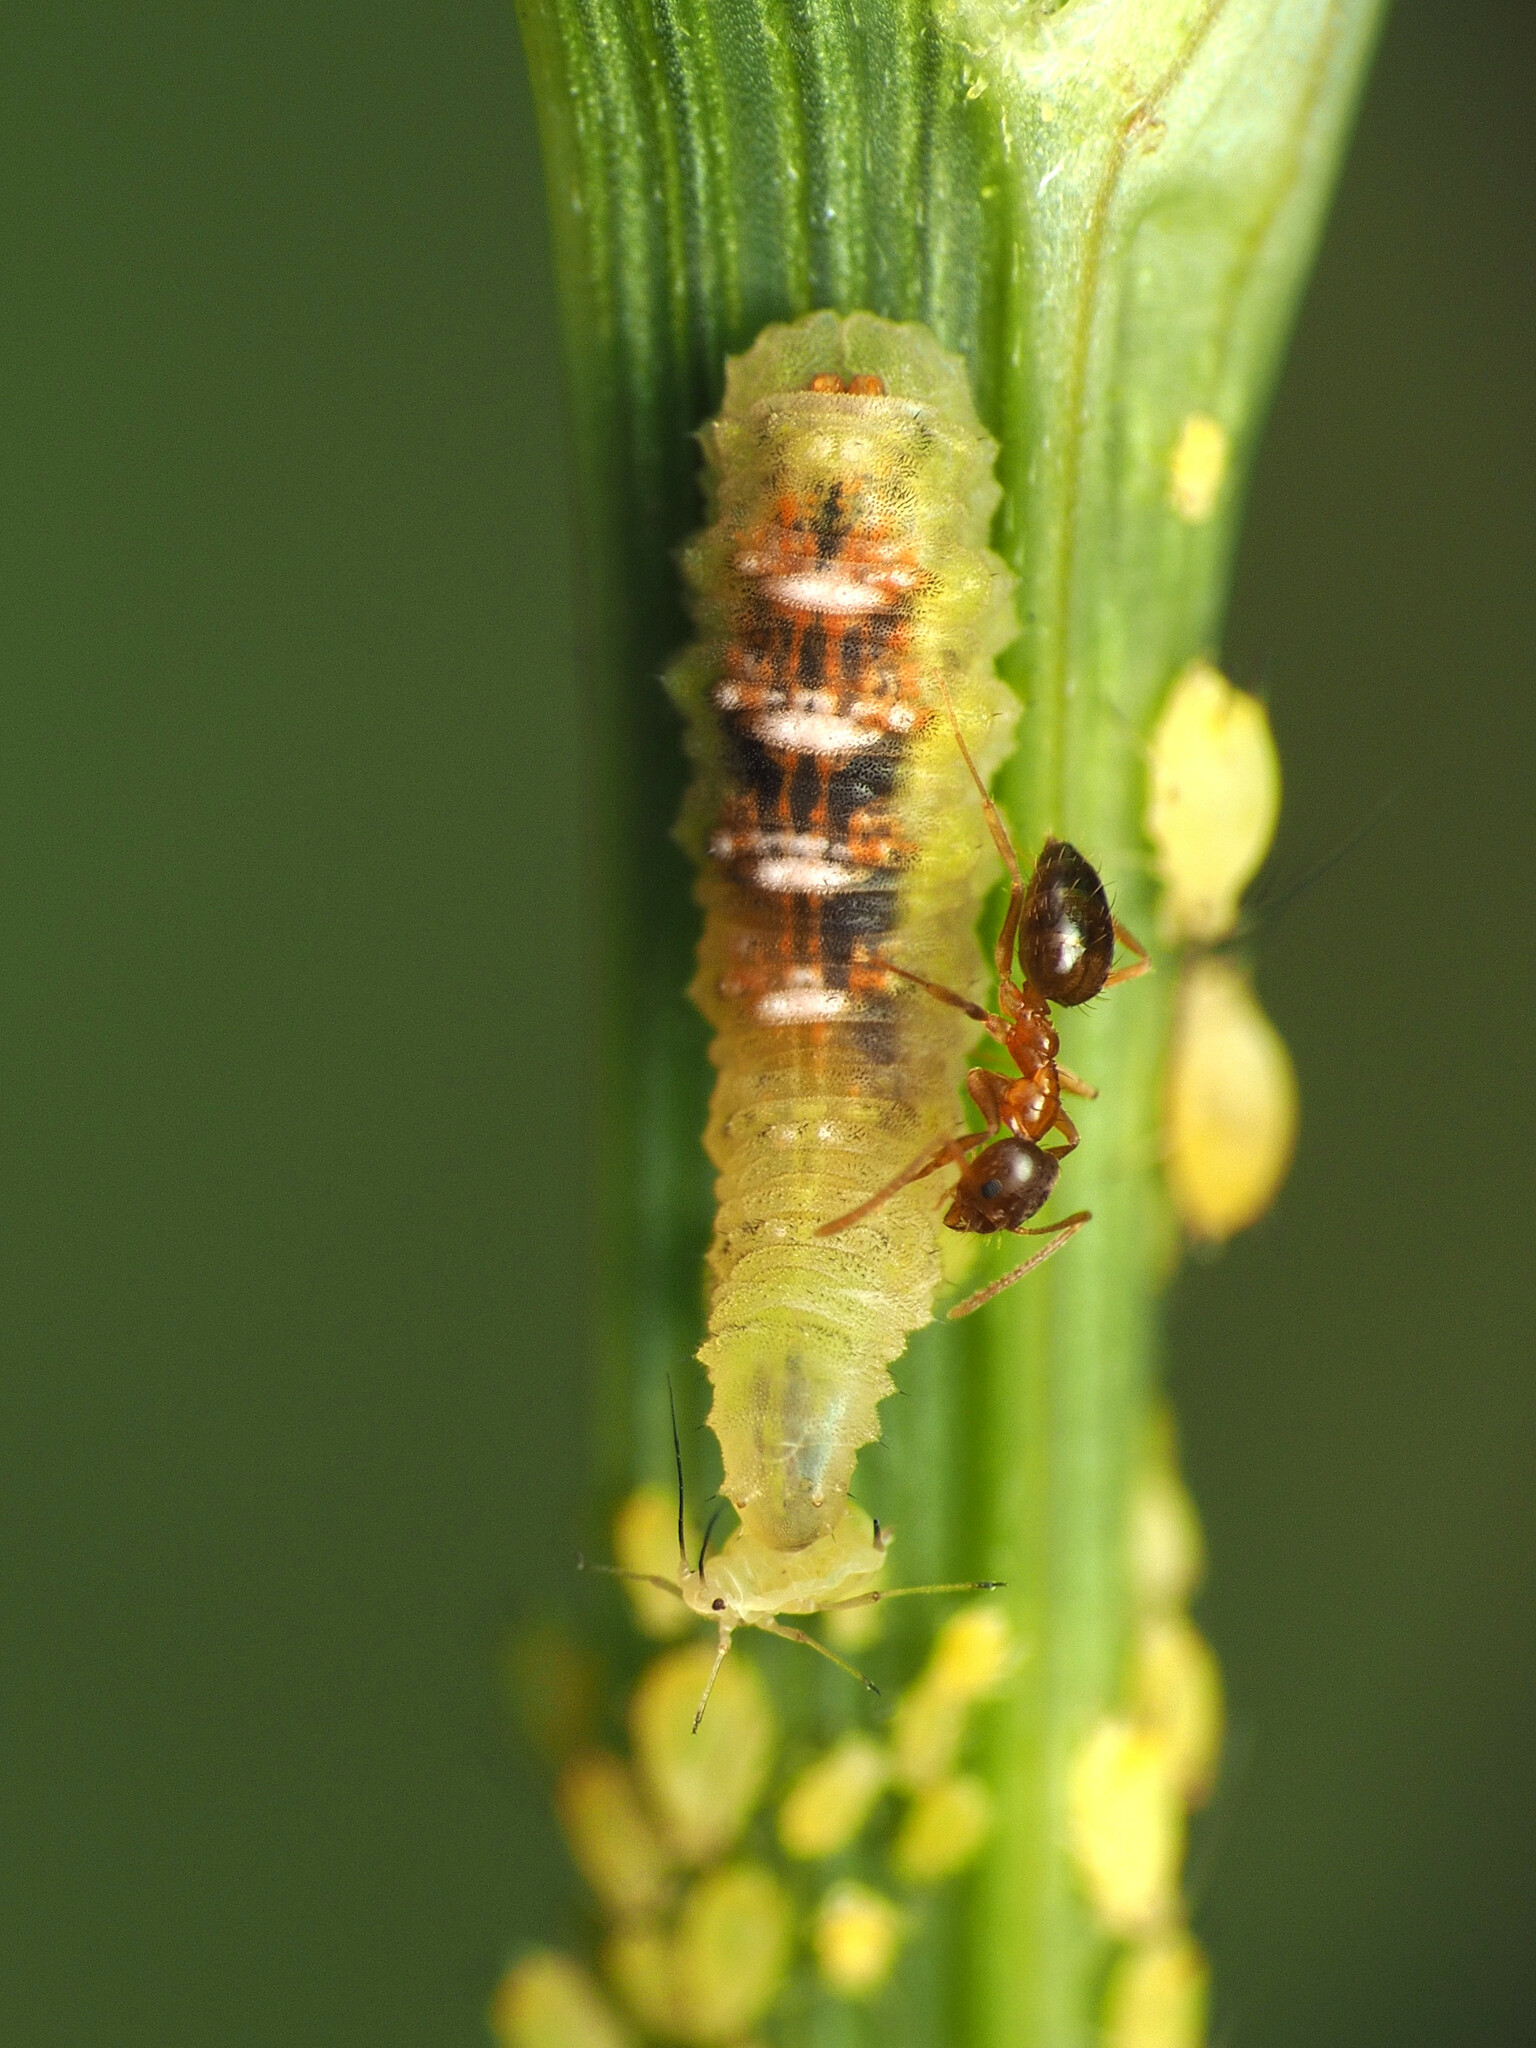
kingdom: Animalia
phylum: Arthropoda
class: Insecta
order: Diptera
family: Syrphidae
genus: Eupeodes
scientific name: Eupeodes pomus
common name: Short-tailed aphideater
